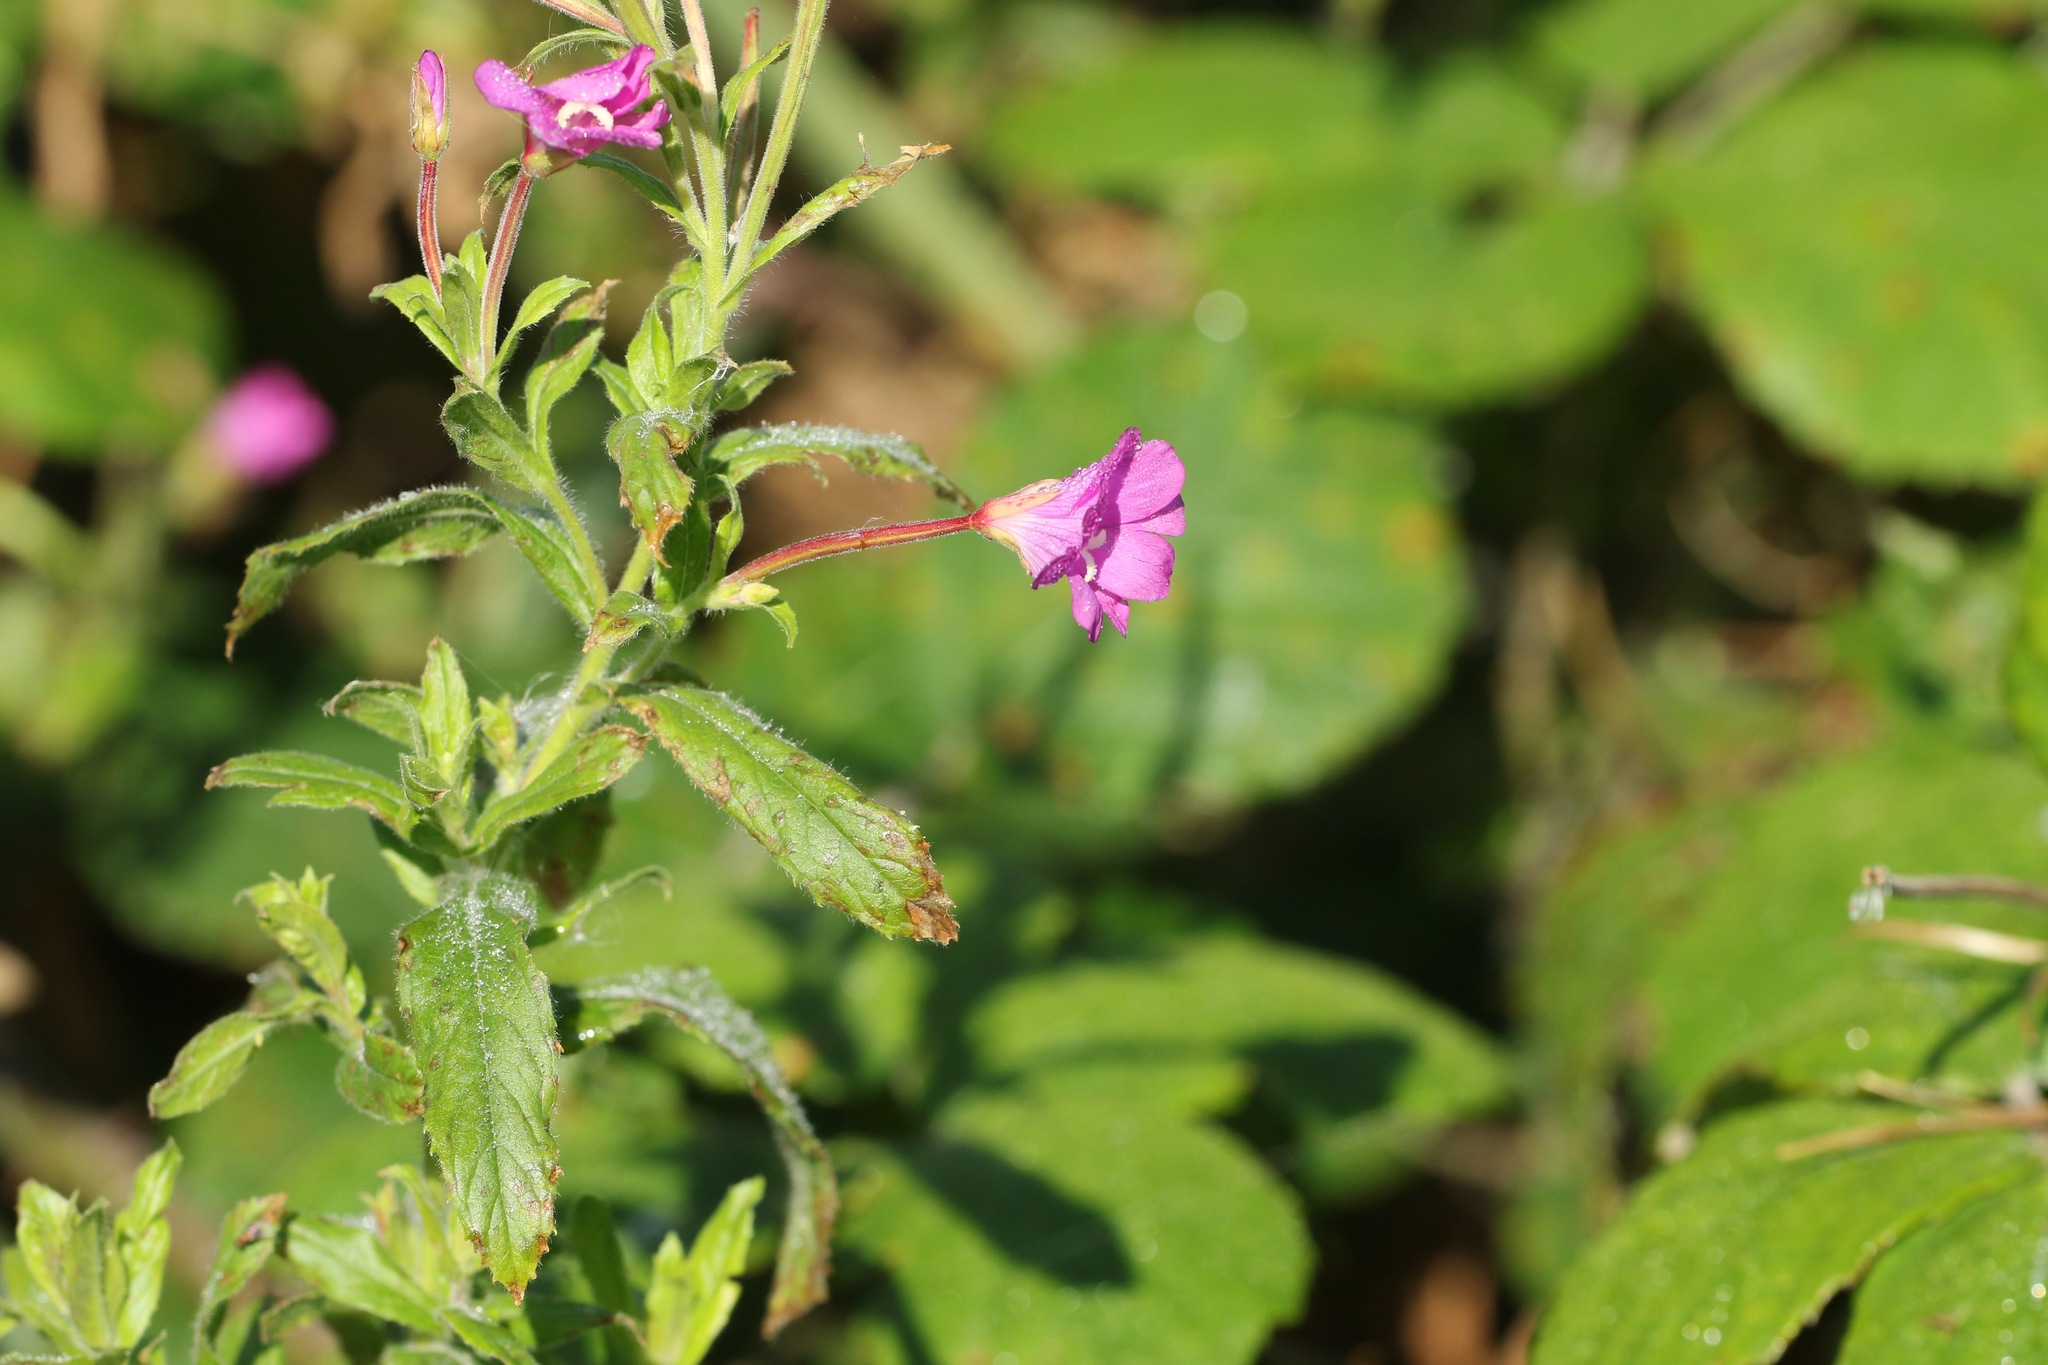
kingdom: Plantae
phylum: Tracheophyta
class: Magnoliopsida
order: Myrtales
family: Onagraceae
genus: Epilobium
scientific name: Epilobium hirsutum
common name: Great willowherb
